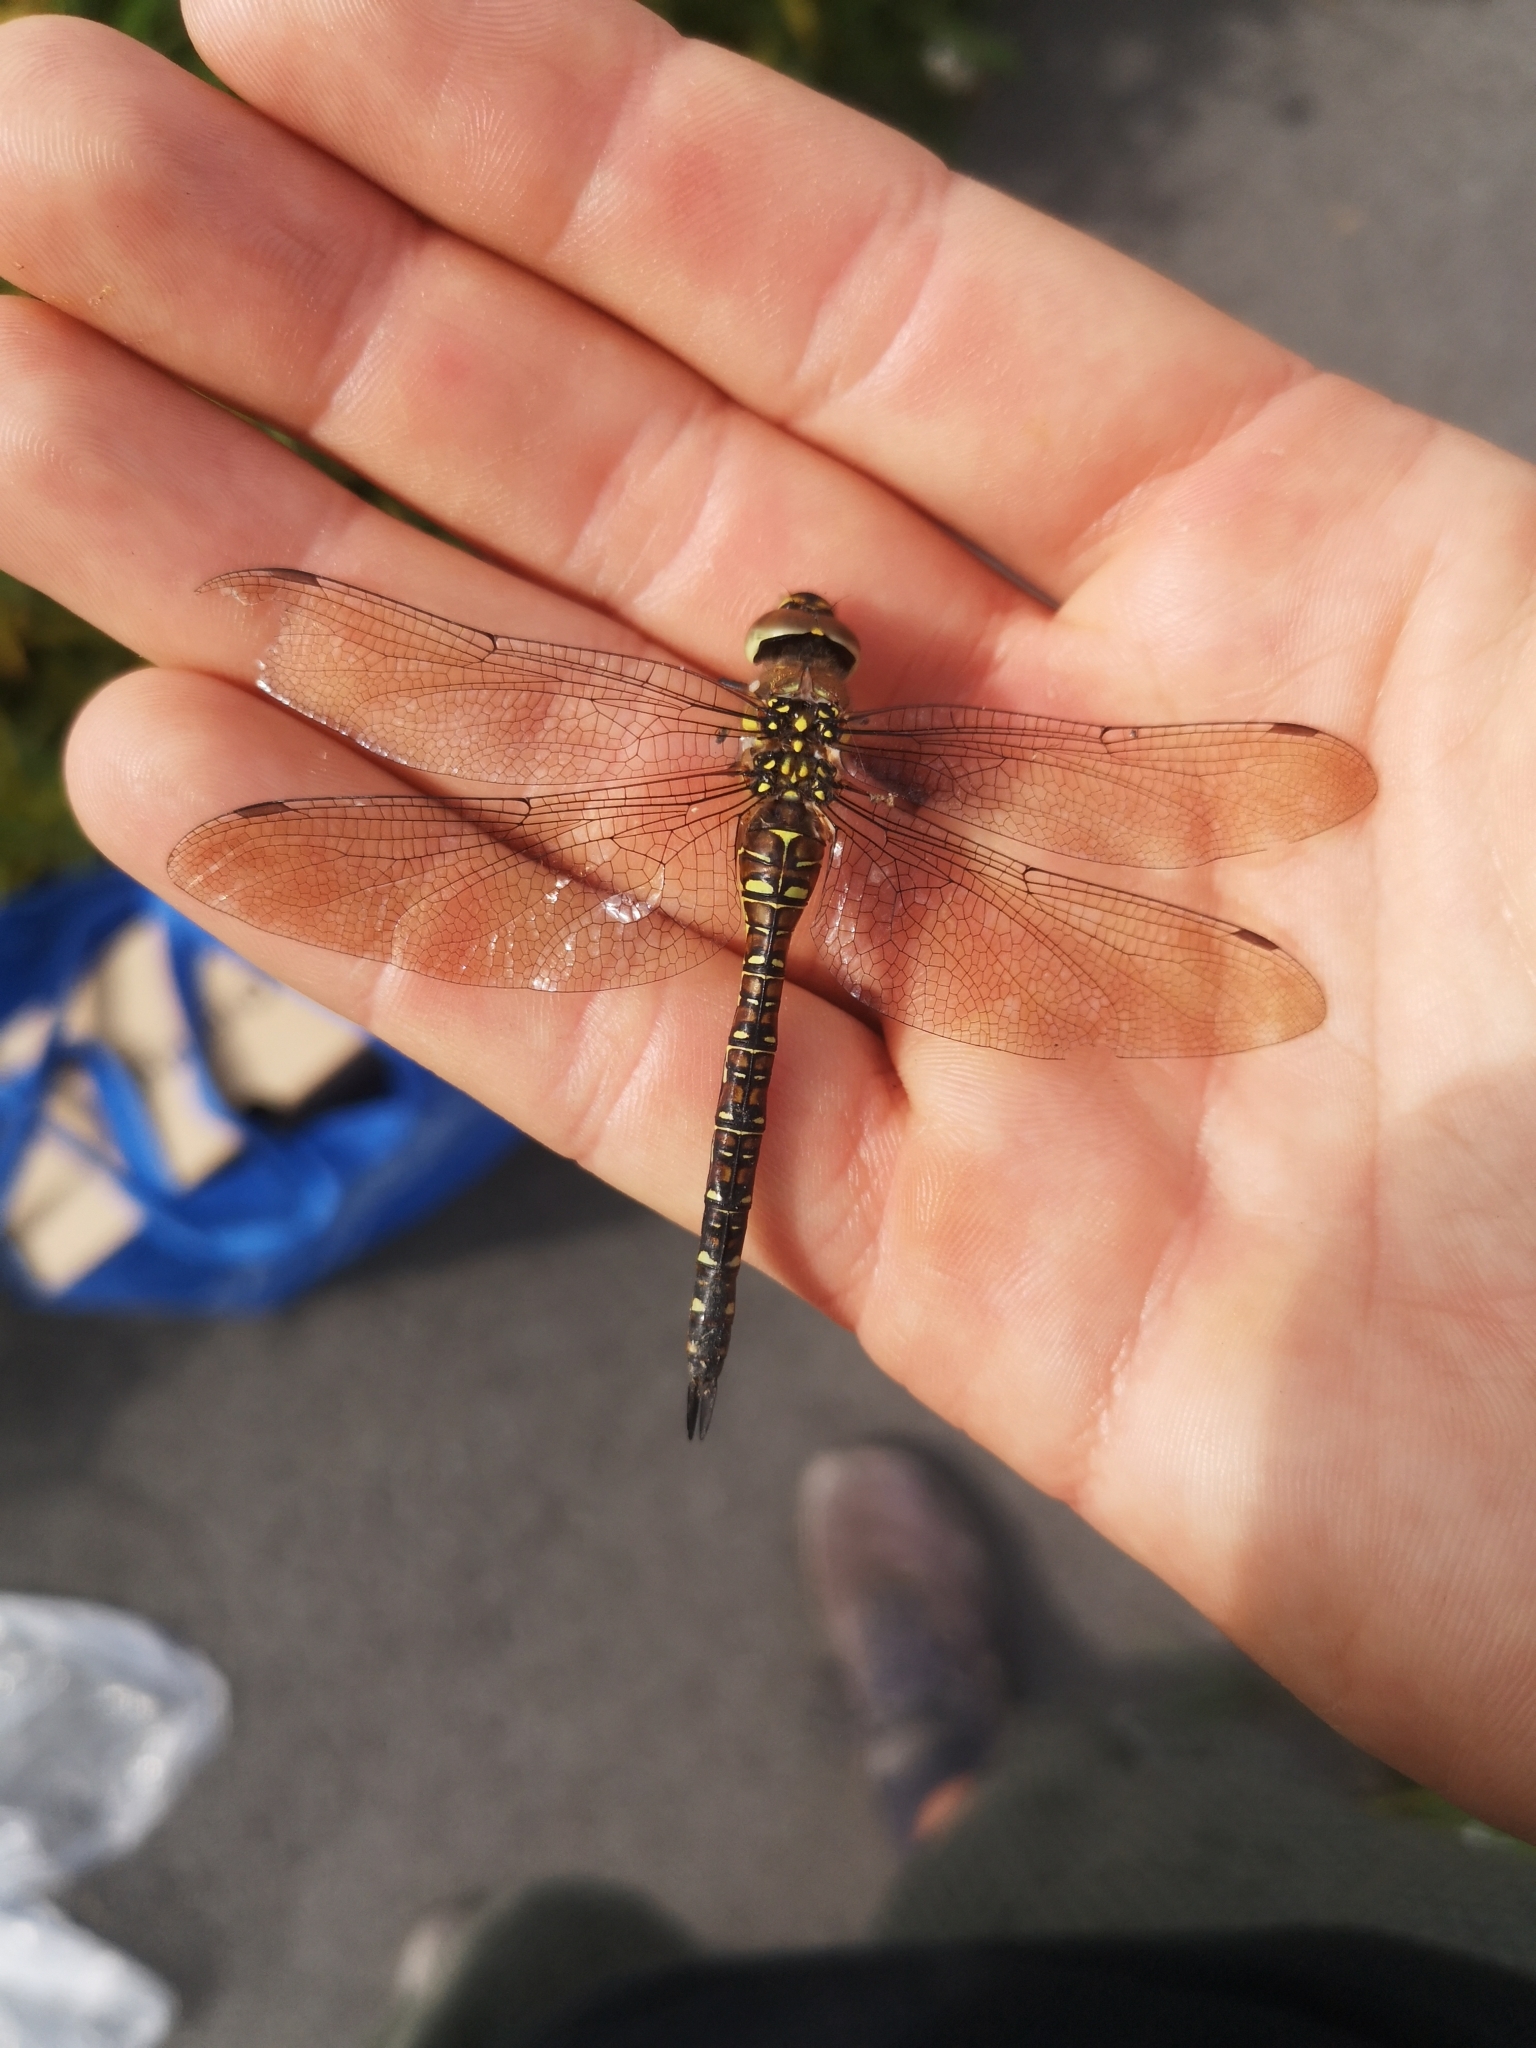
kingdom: Animalia
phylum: Arthropoda
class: Insecta
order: Odonata
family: Aeshnidae
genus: Aeshna
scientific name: Aeshna mixta
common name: Migrant hawker
